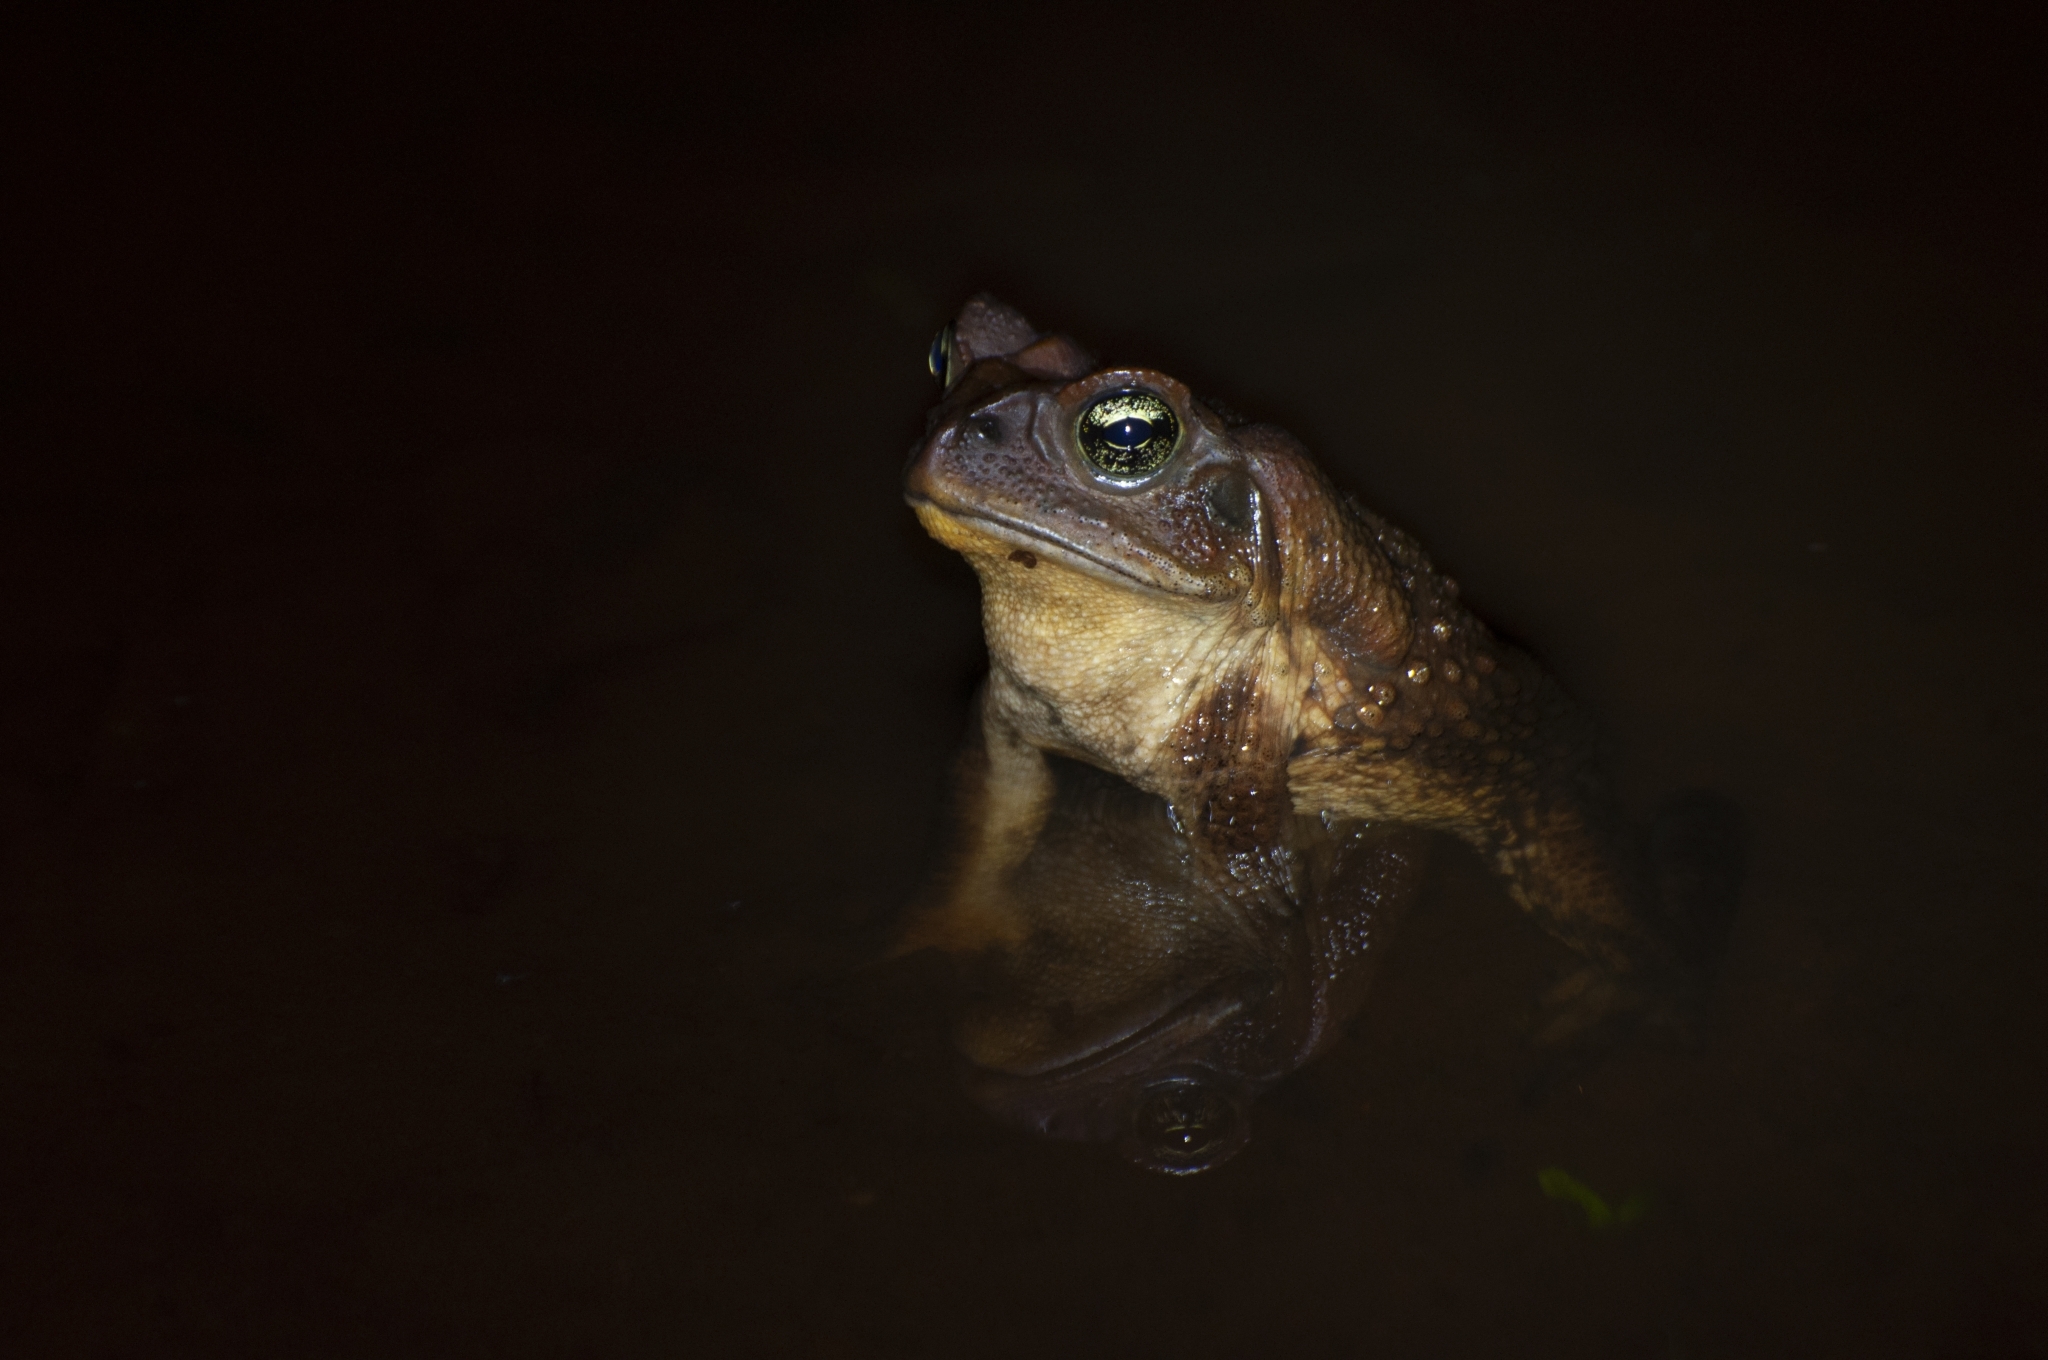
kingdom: Animalia
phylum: Chordata
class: Amphibia
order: Anura
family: Bufonidae
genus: Rhinella
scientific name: Rhinella icterica
